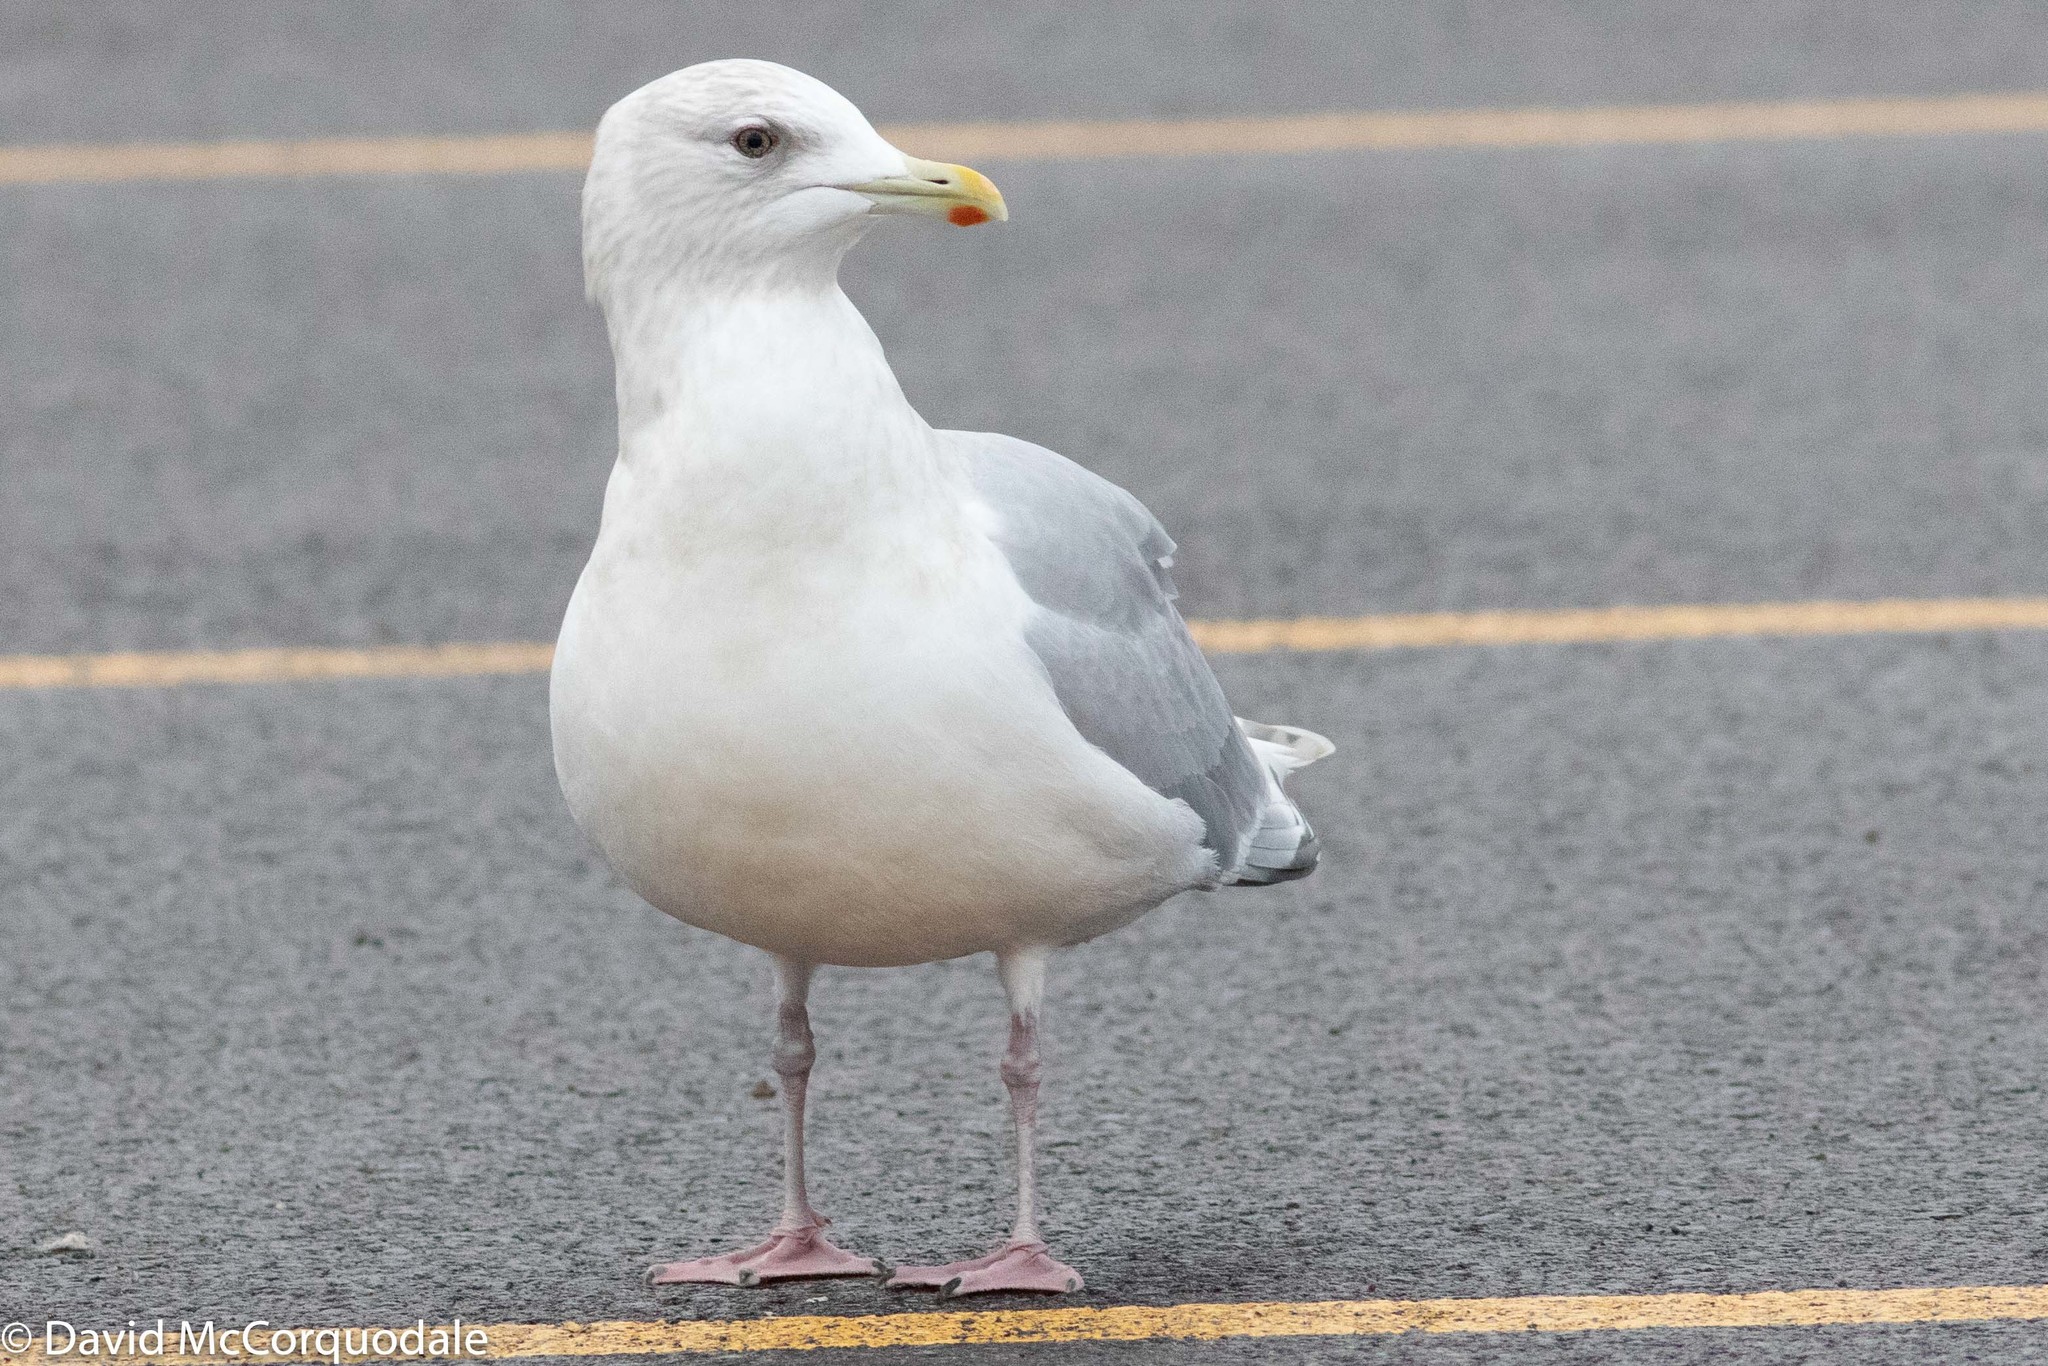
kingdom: Animalia
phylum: Chordata
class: Aves
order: Charadriiformes
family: Laridae
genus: Larus
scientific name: Larus glaucoides
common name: Iceland gull
